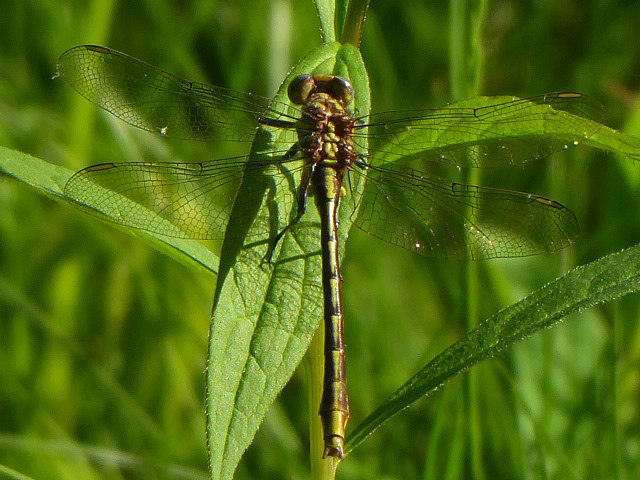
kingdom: Animalia
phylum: Arthropoda
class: Insecta
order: Odonata
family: Gomphidae
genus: Phanogomphus
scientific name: Phanogomphus exilis
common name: Lancet clubtail
